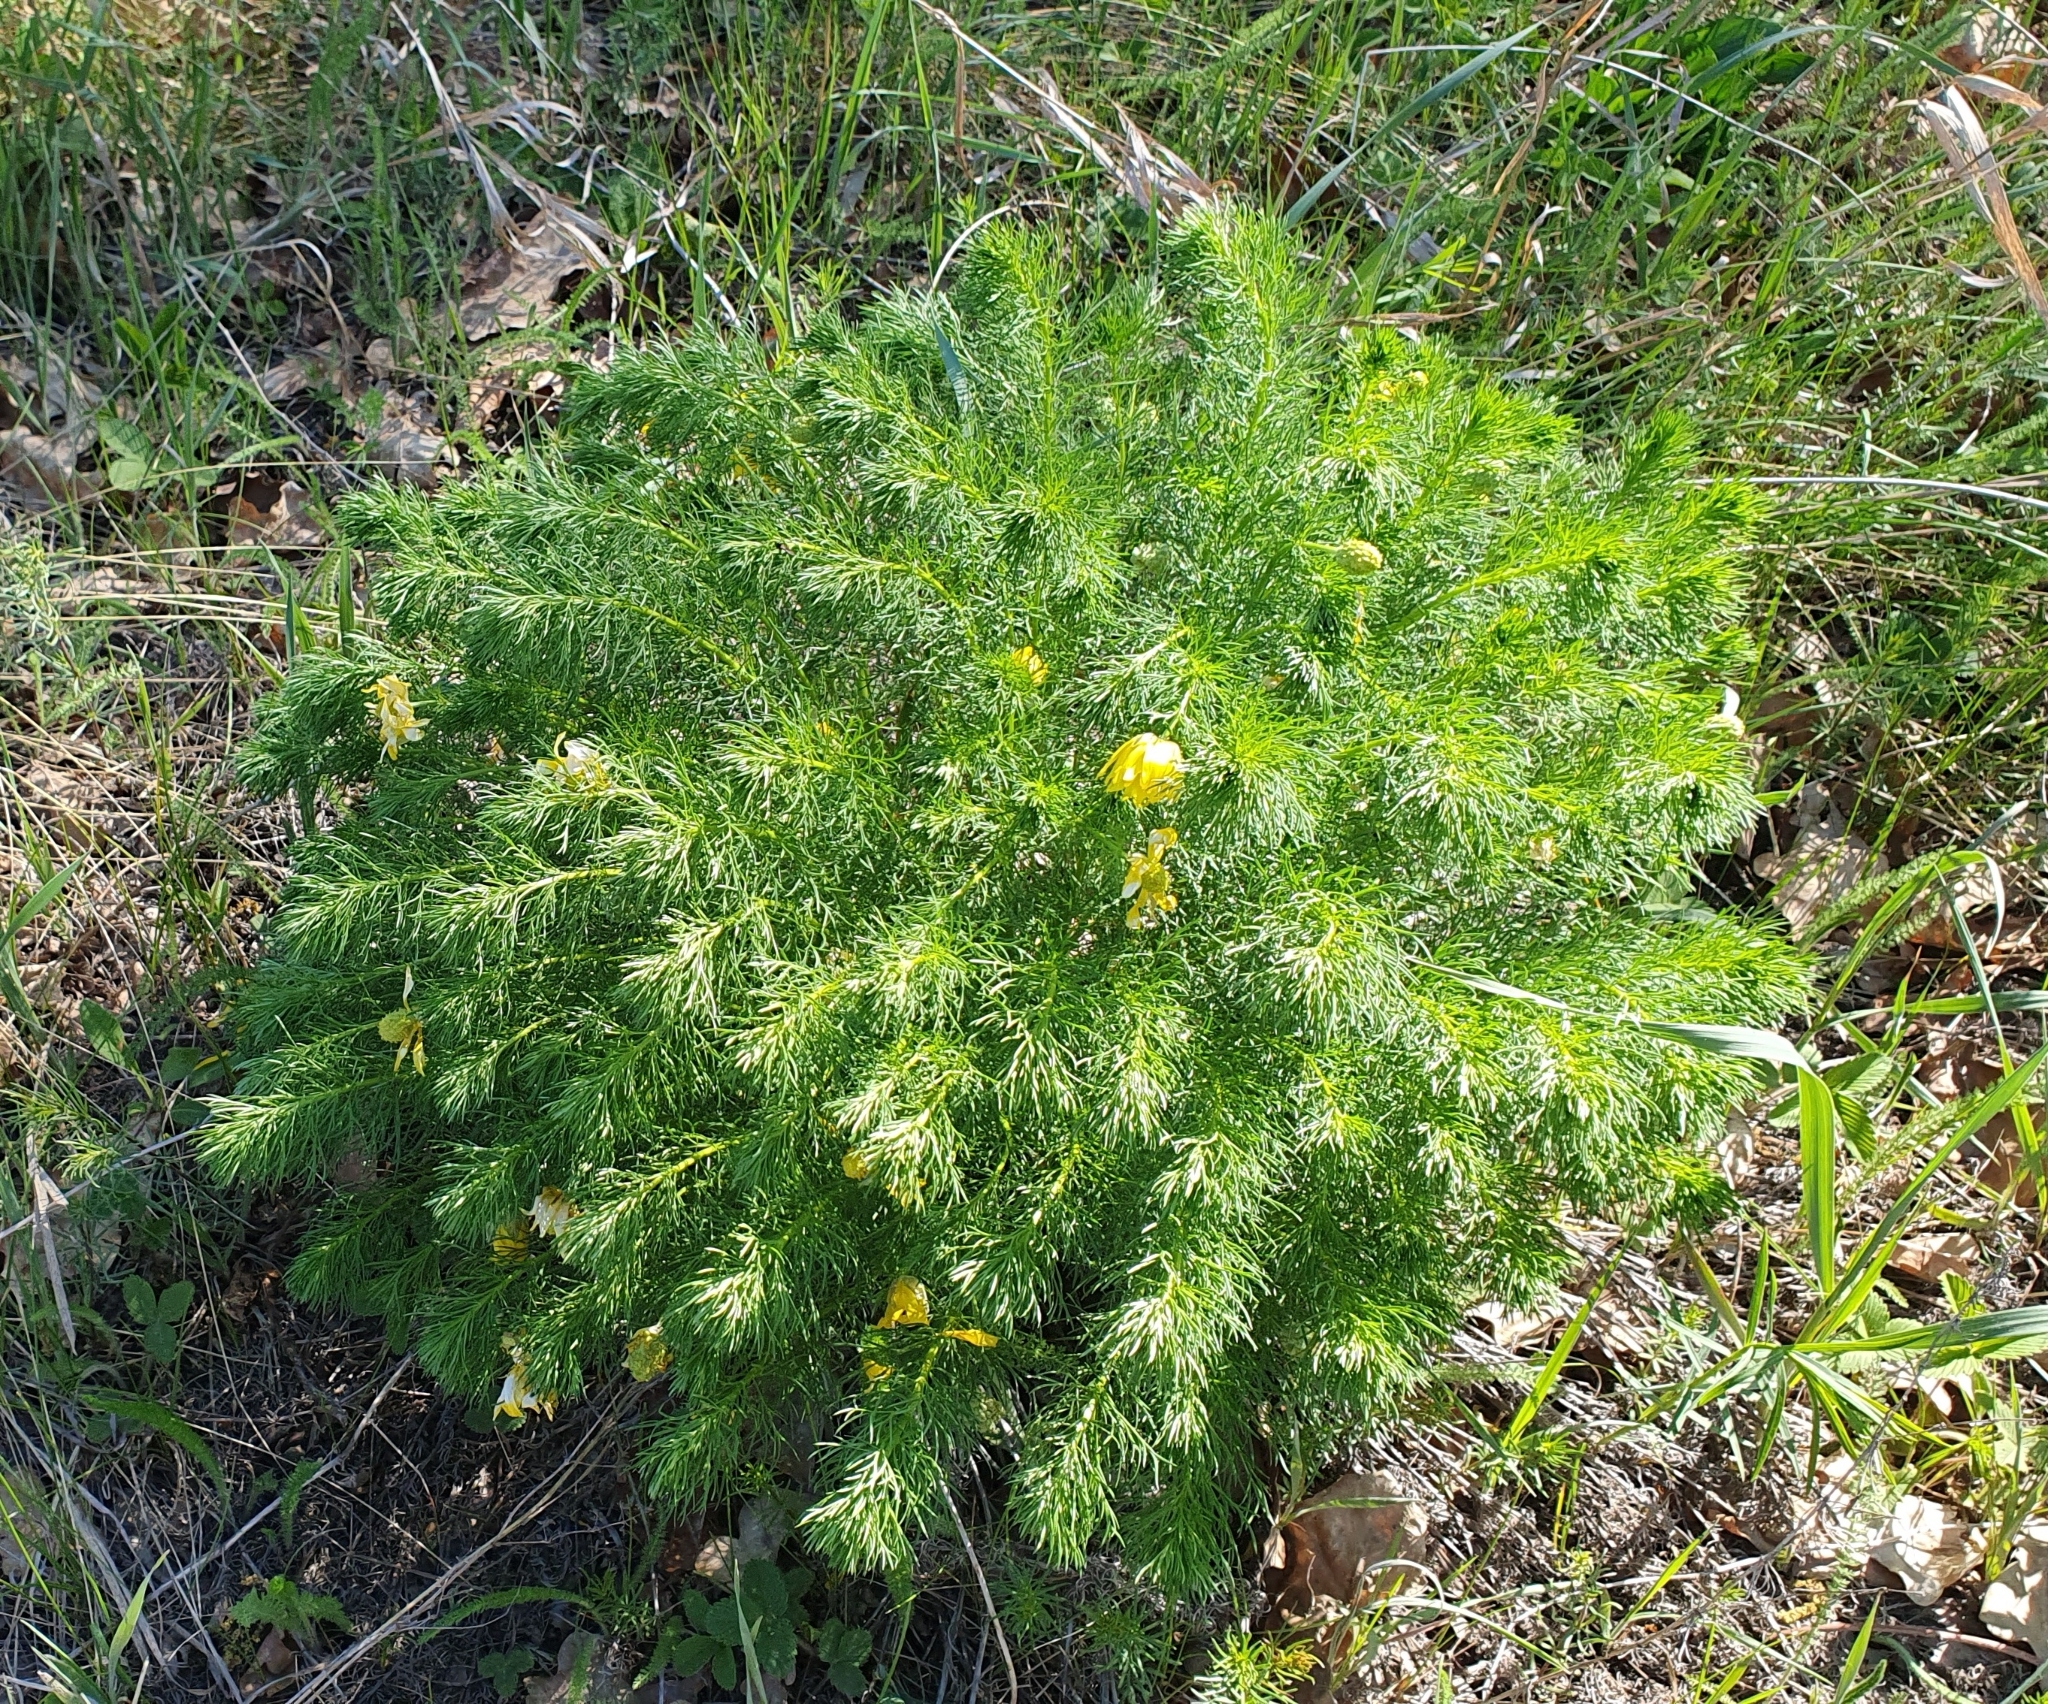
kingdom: Plantae
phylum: Tracheophyta
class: Magnoliopsida
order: Ranunculales
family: Ranunculaceae
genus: Adonis
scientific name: Adonis vernalis
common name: Yellow pheasants-eye
